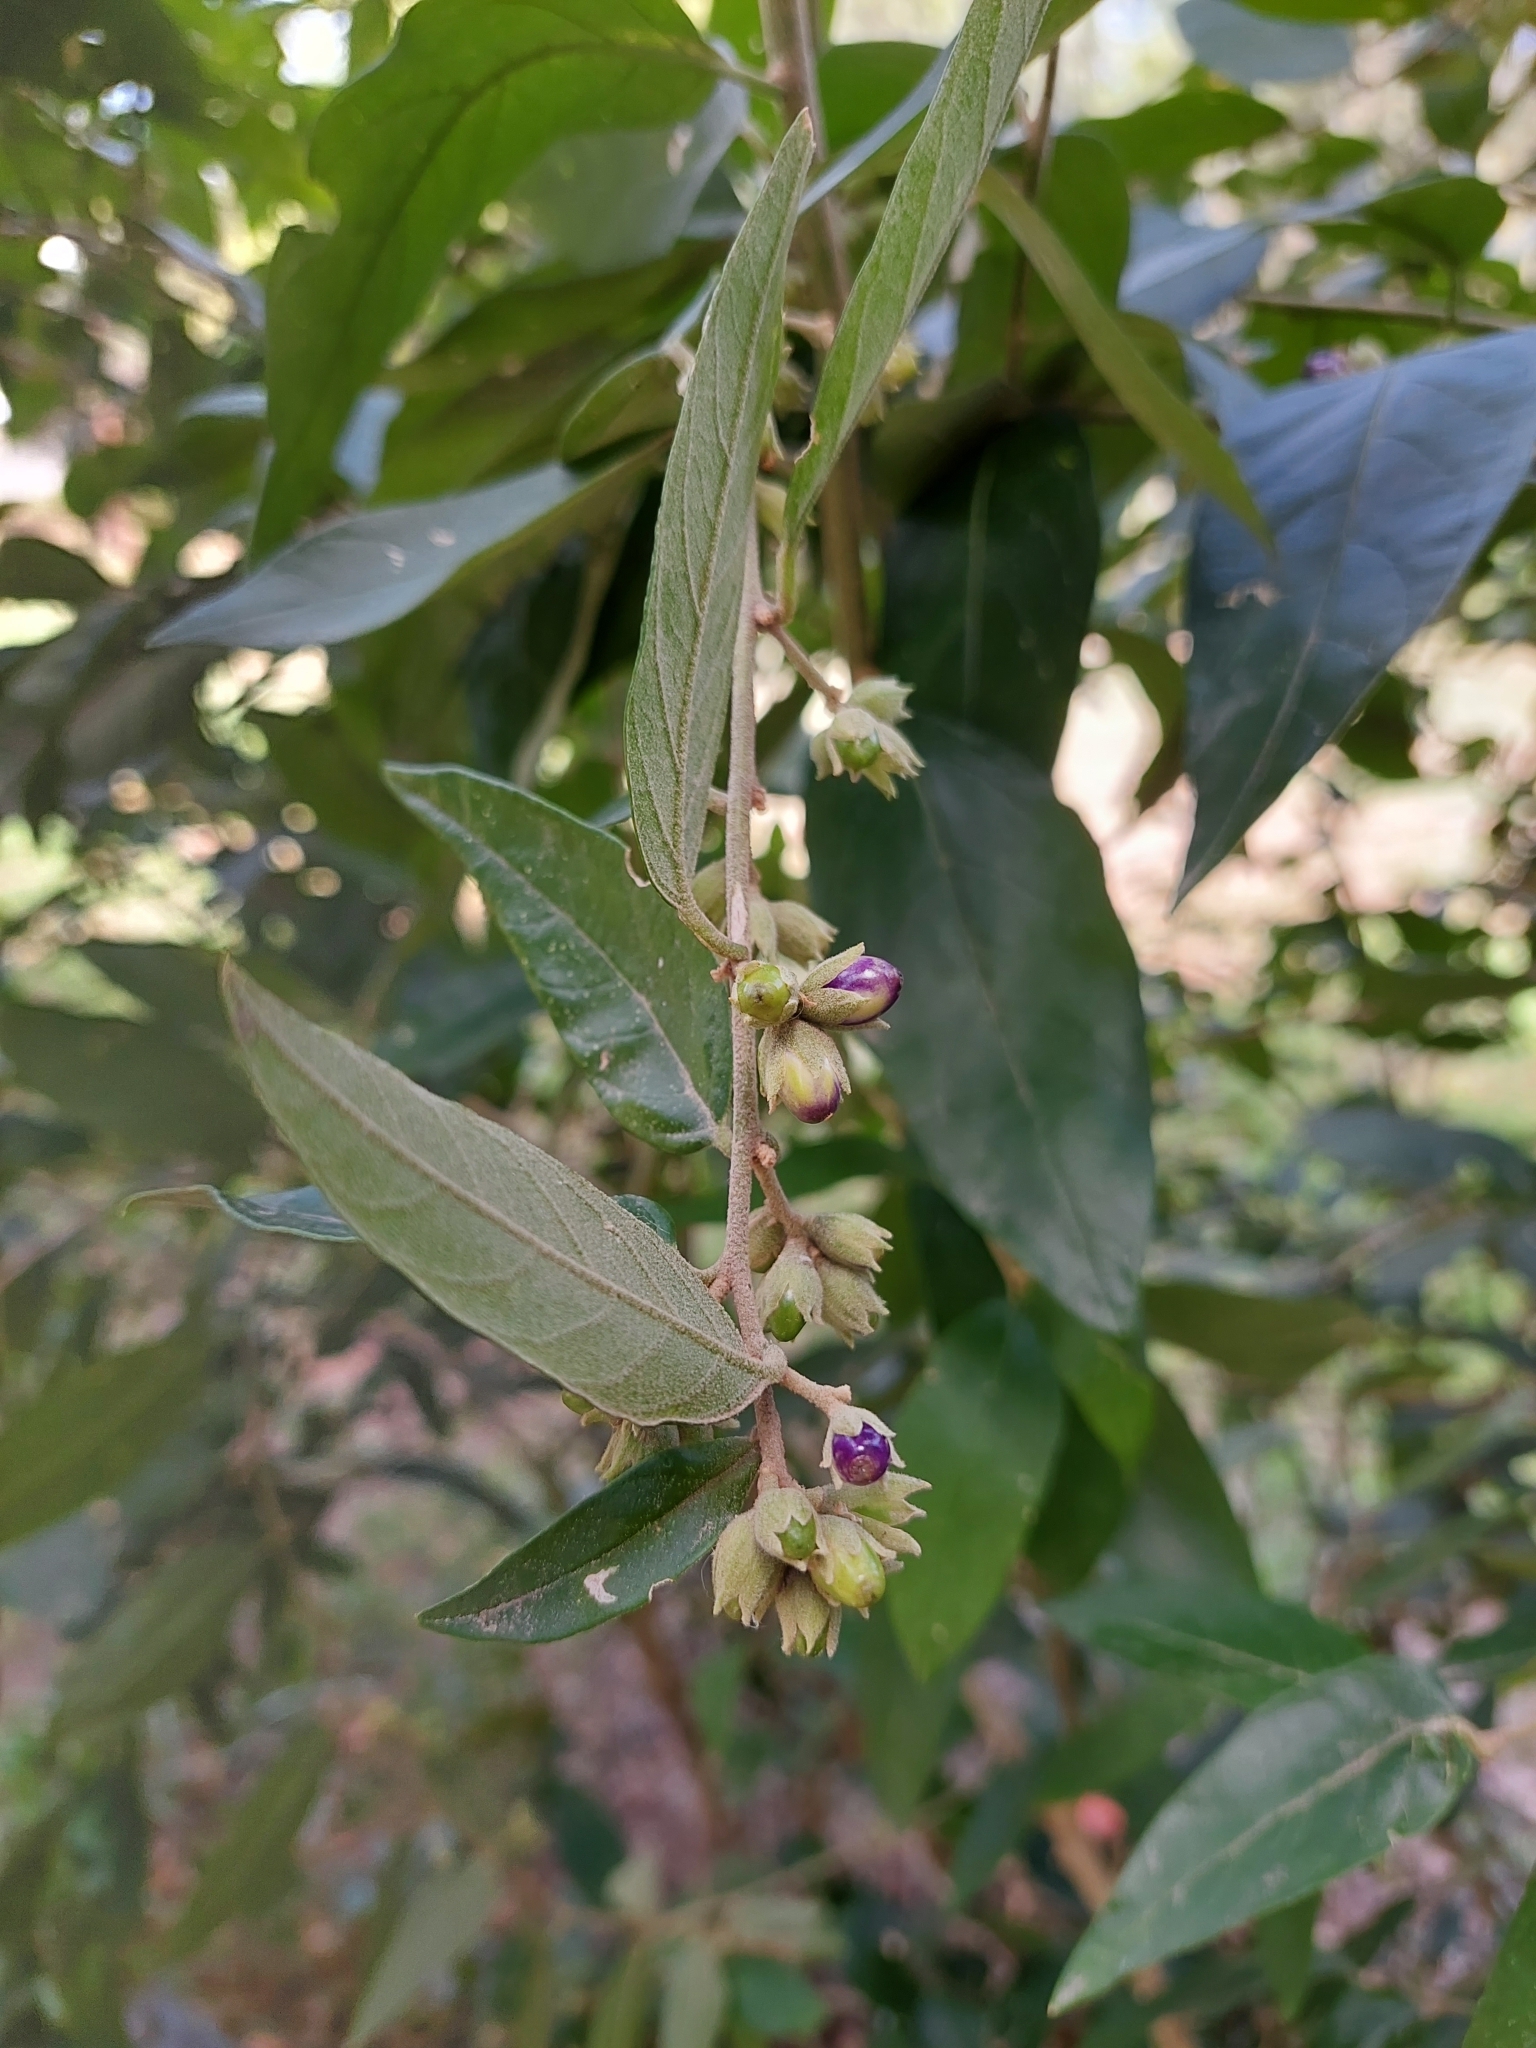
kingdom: Plantae
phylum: Tracheophyta
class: Magnoliopsida
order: Solanales
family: Solanaceae
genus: Cestrum
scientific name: Cestrum strigillatum
